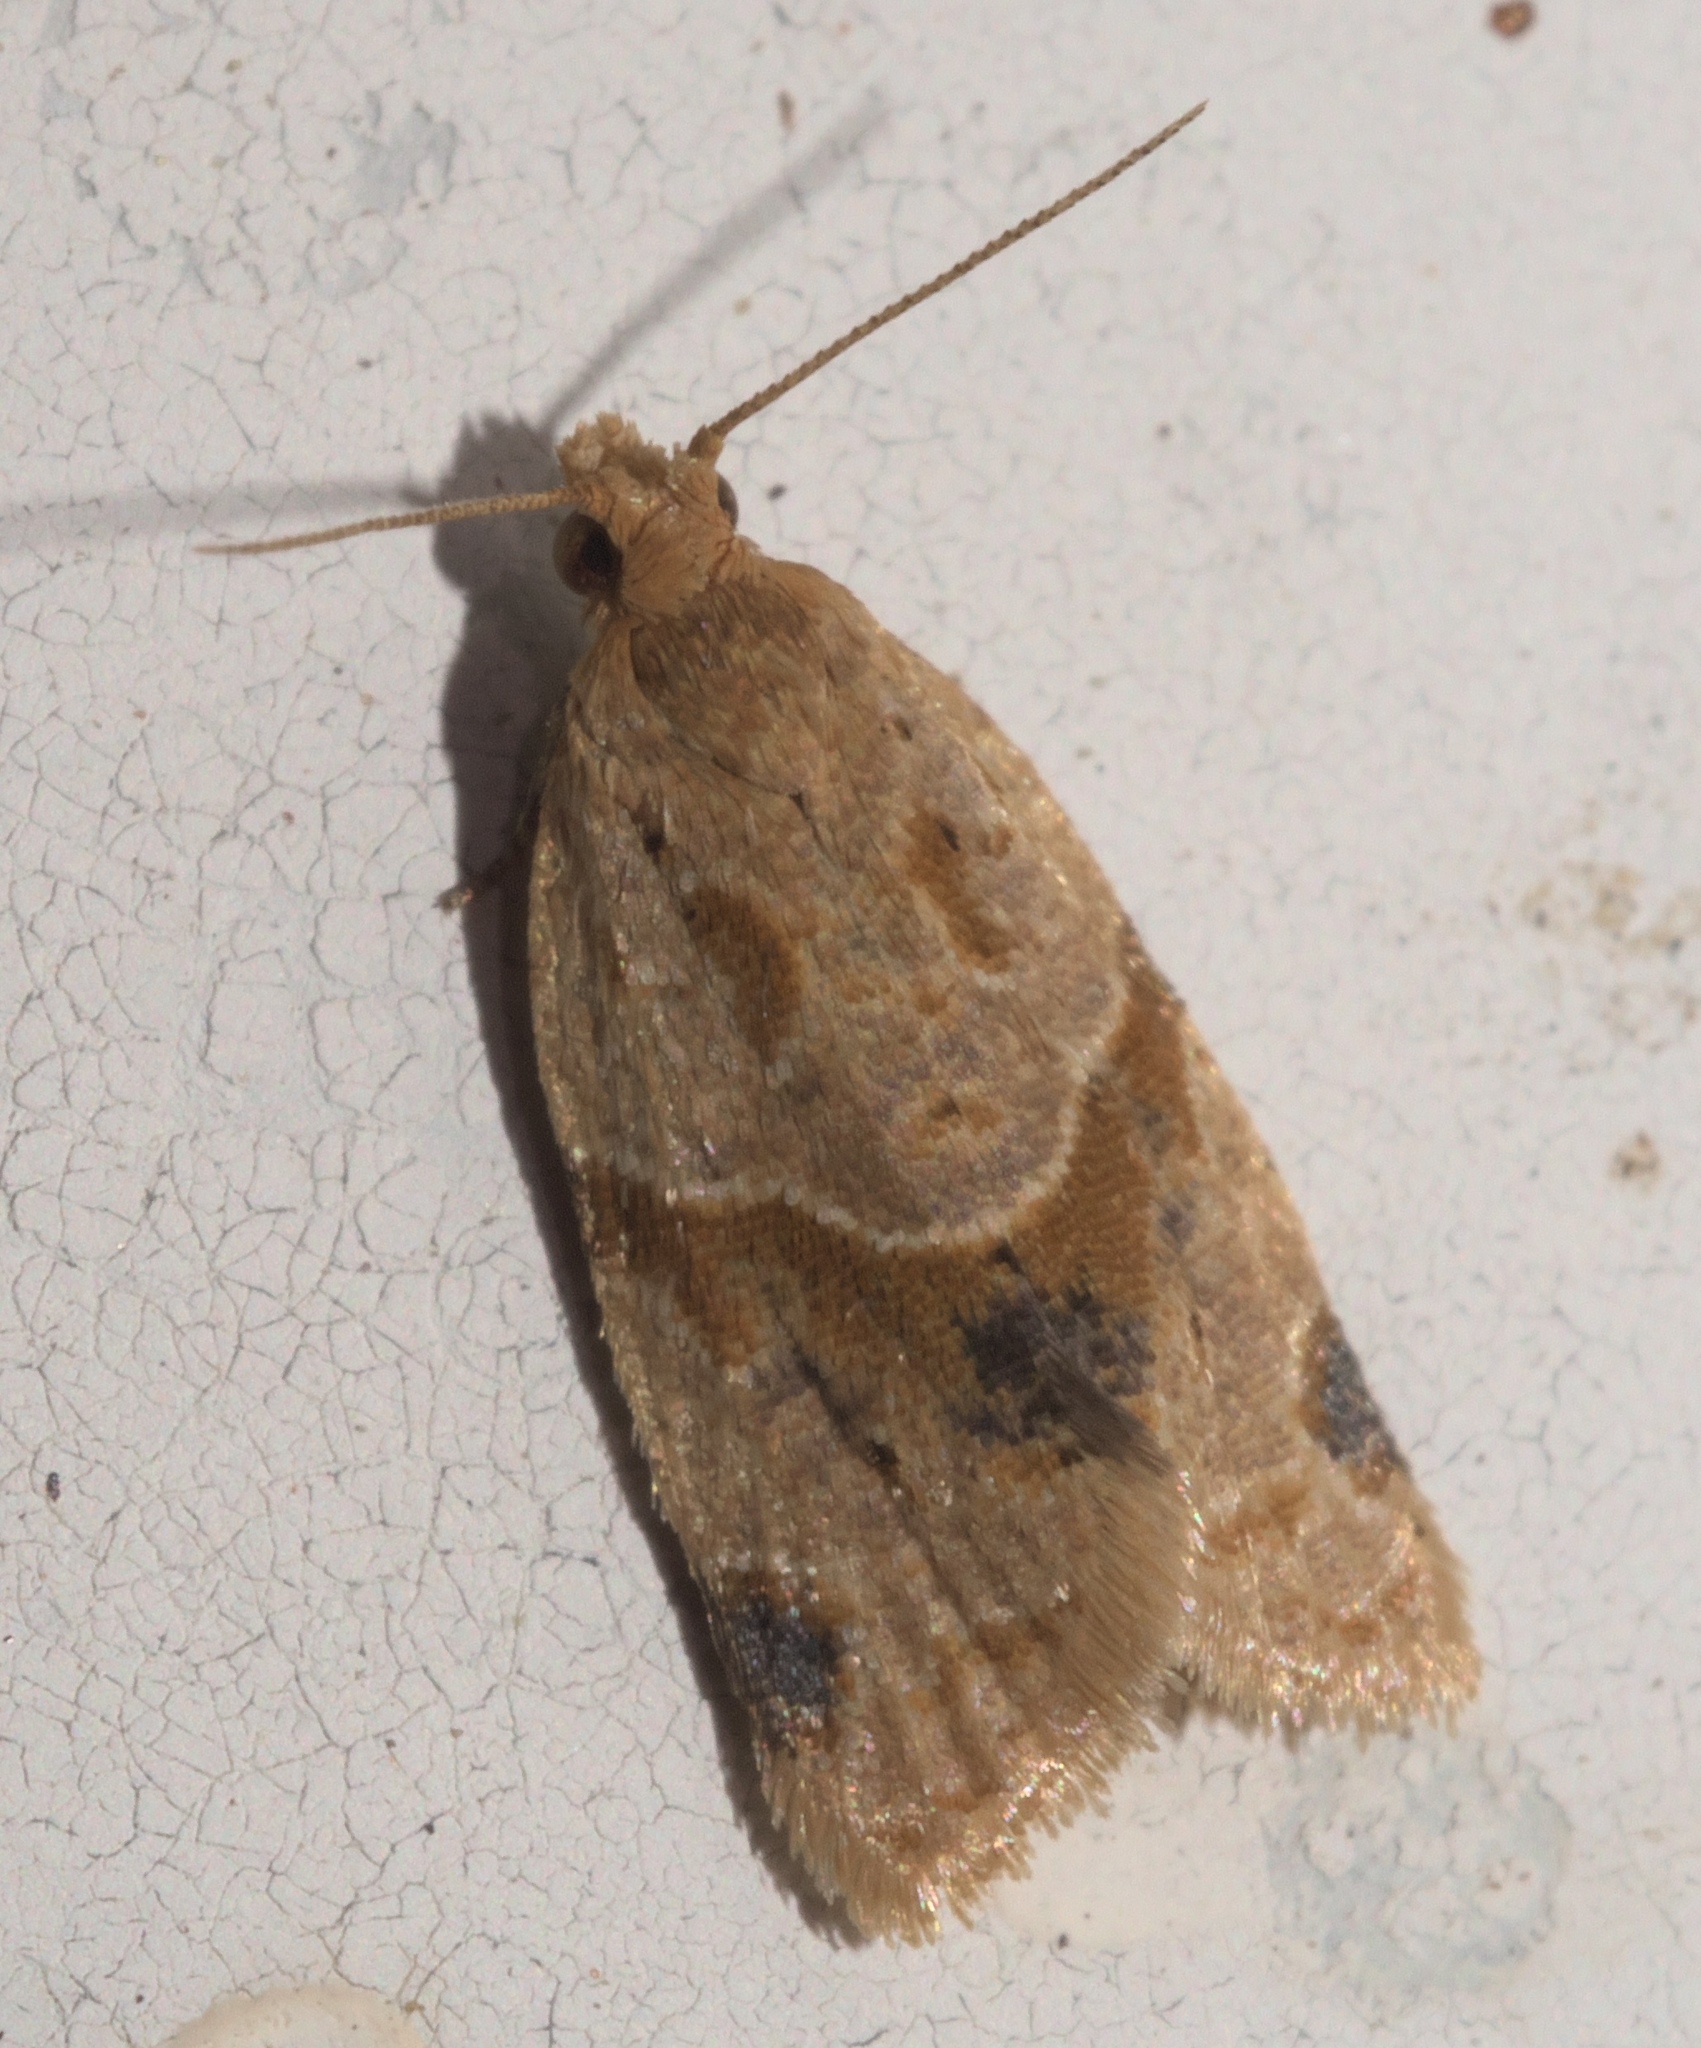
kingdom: Animalia
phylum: Arthropoda
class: Insecta
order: Lepidoptera
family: Tortricidae
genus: Clepsis
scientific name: Clepsis peritana
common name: Garden tortrix
